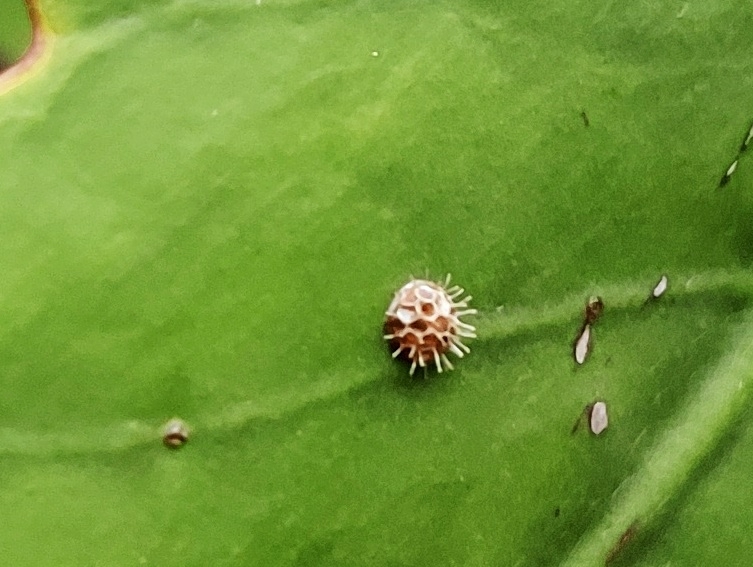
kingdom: Animalia
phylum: Arthropoda
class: Insecta
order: Lepidoptera
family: Nymphalidae
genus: Euthalia
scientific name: Euthalia lubentina
